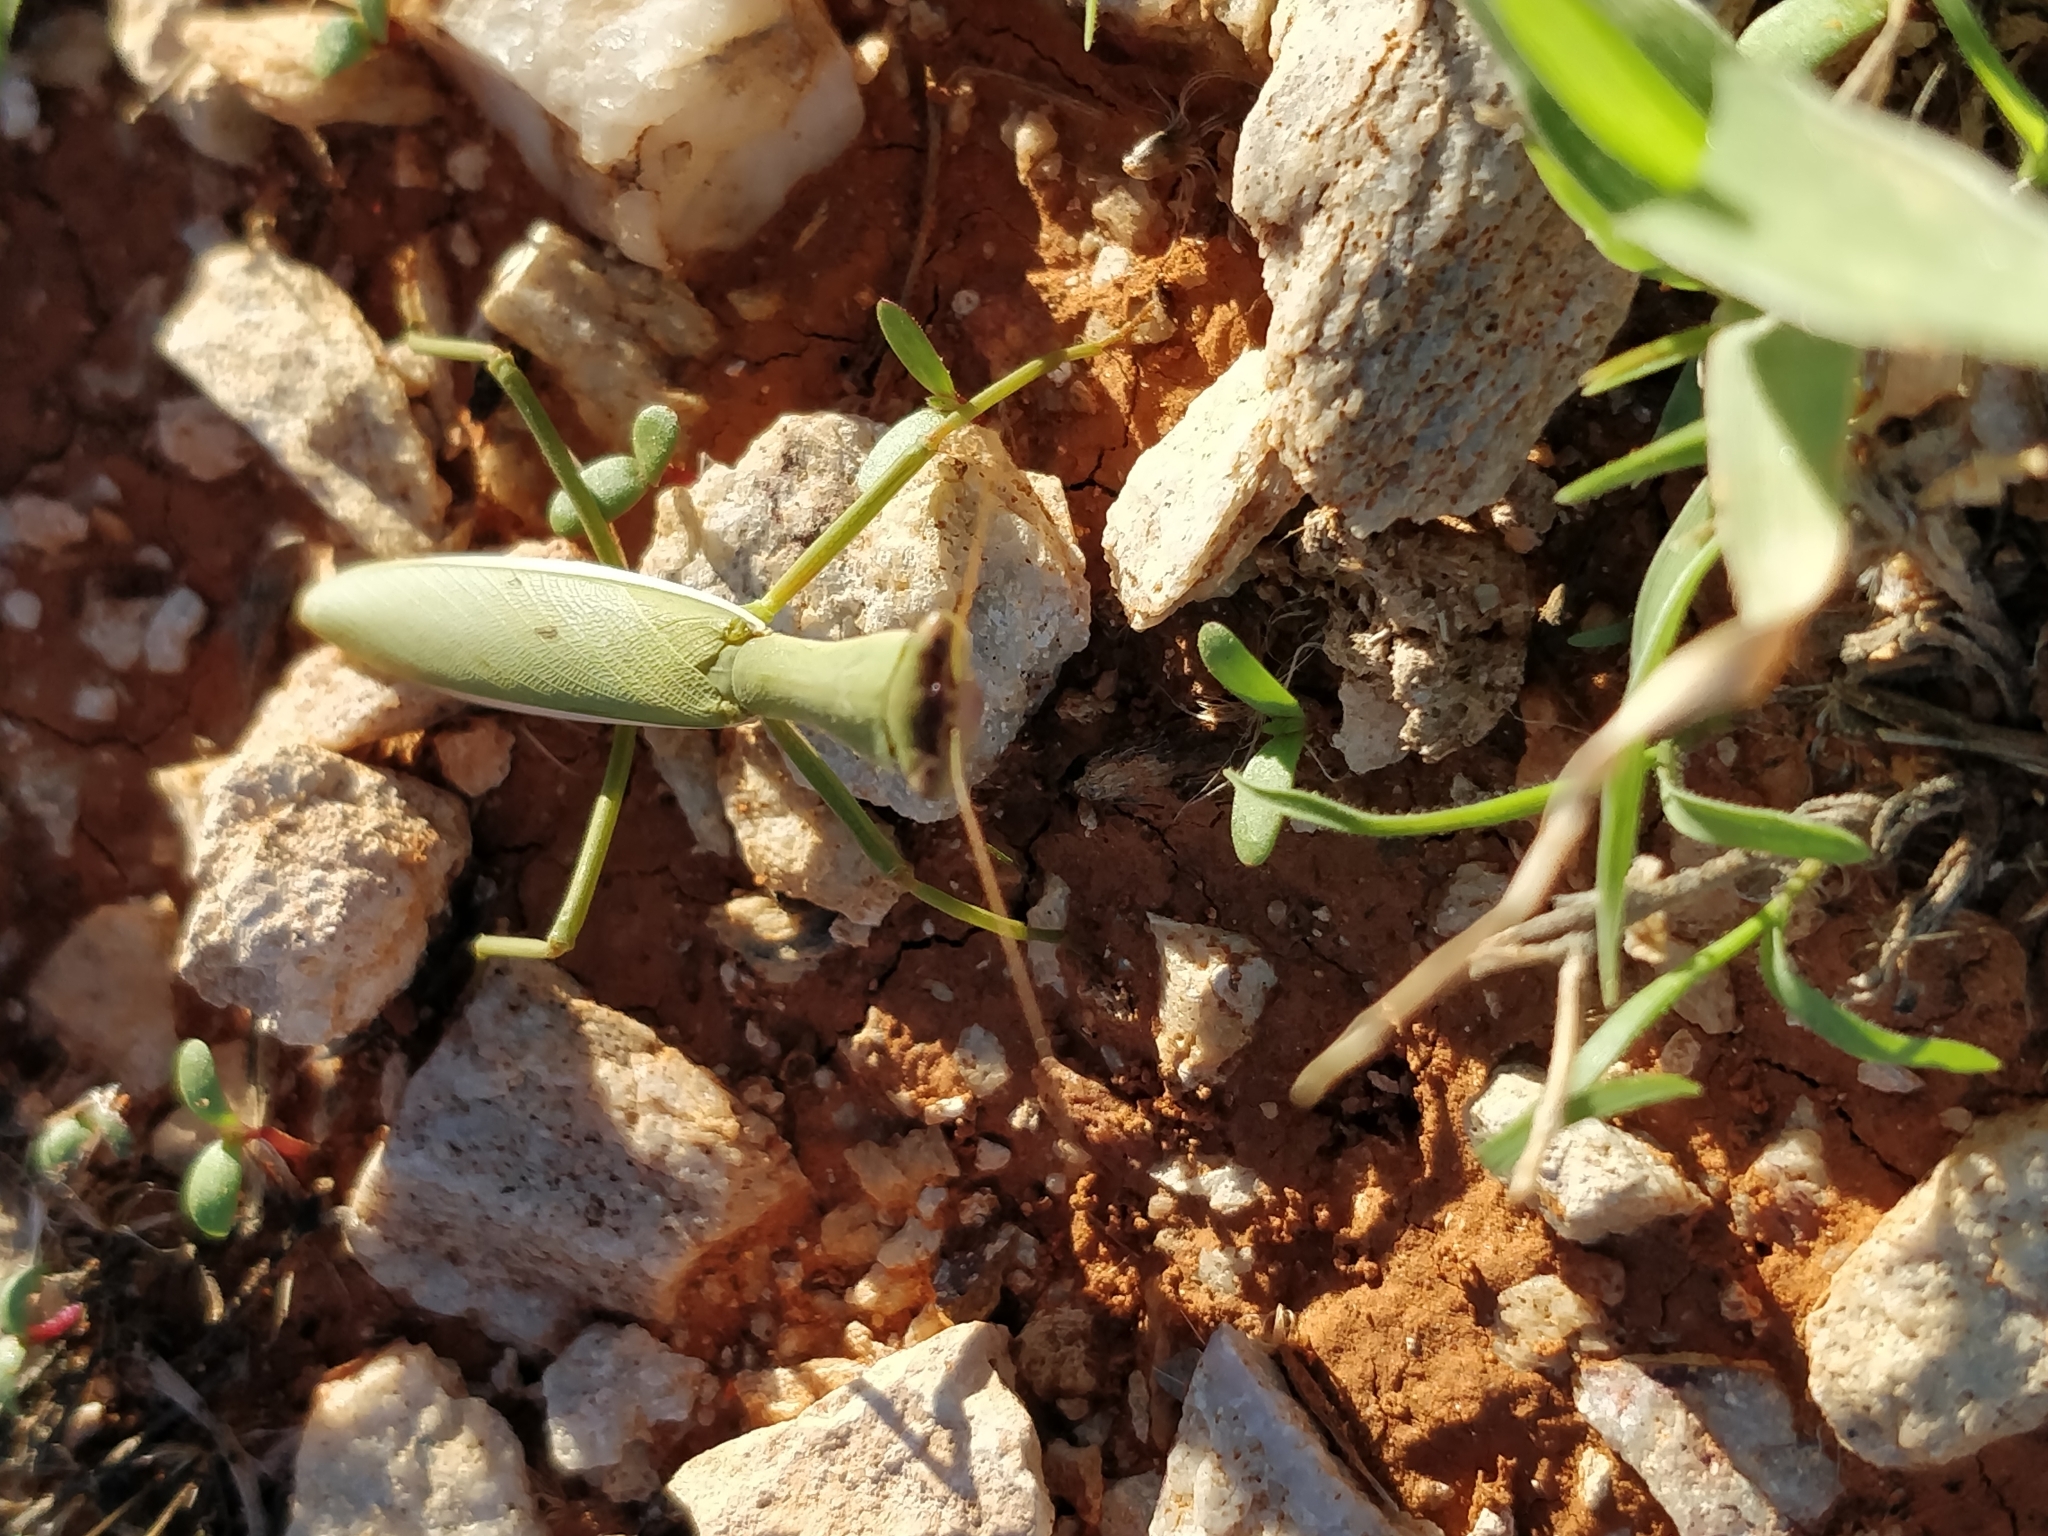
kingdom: Animalia
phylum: Arthropoda
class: Insecta
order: Mantodea
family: Mantidae
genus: Orthodera
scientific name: Orthodera gunni
